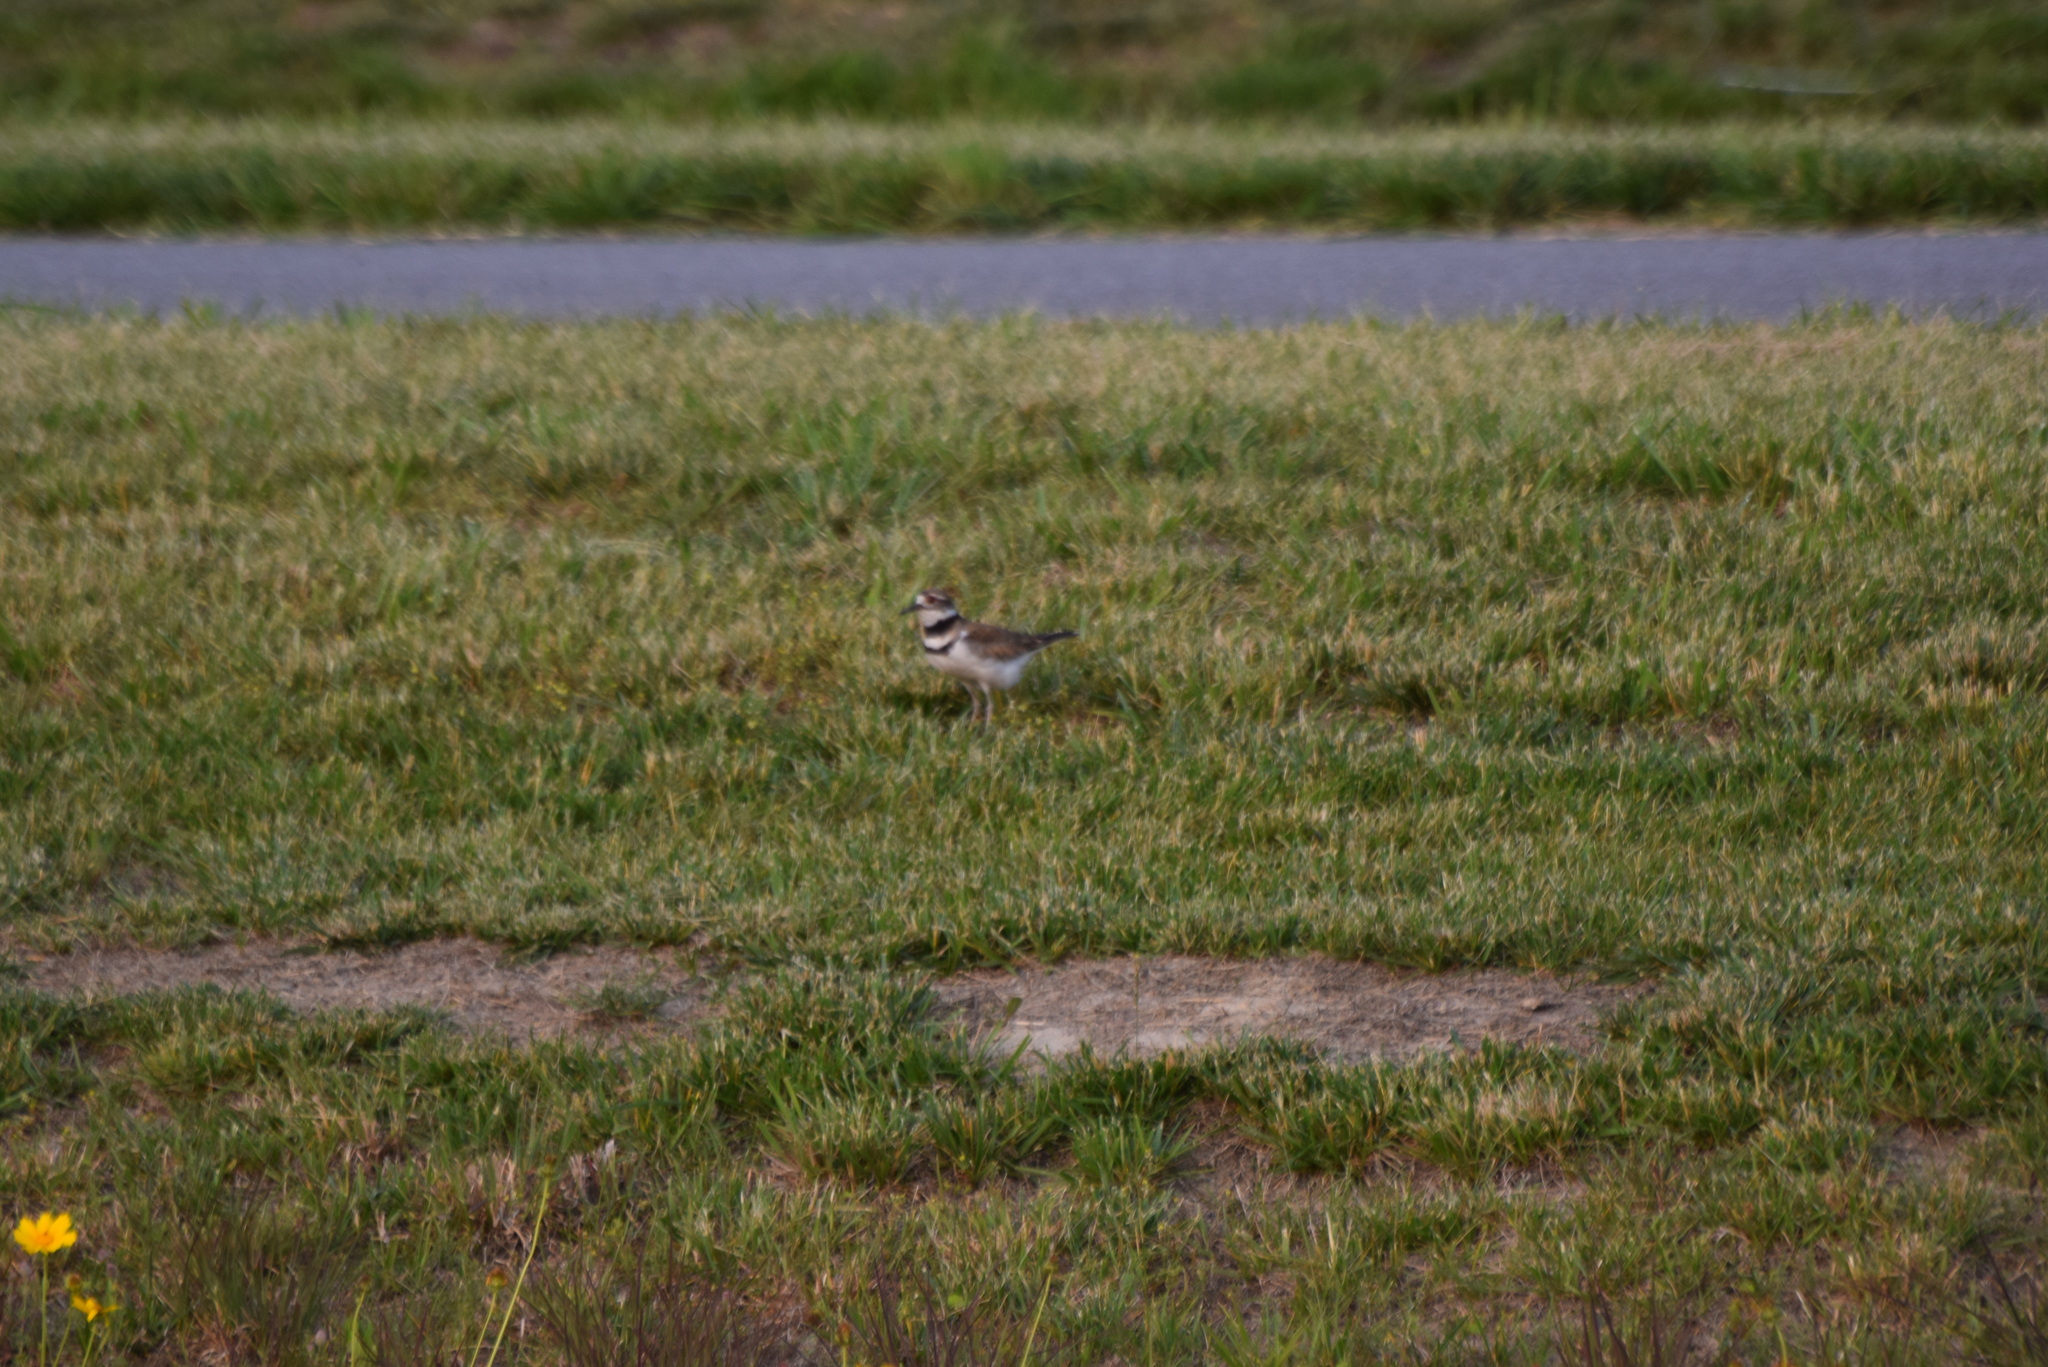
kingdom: Animalia
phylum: Chordata
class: Aves
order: Charadriiformes
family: Charadriidae
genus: Charadrius
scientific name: Charadrius vociferus
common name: Killdeer
